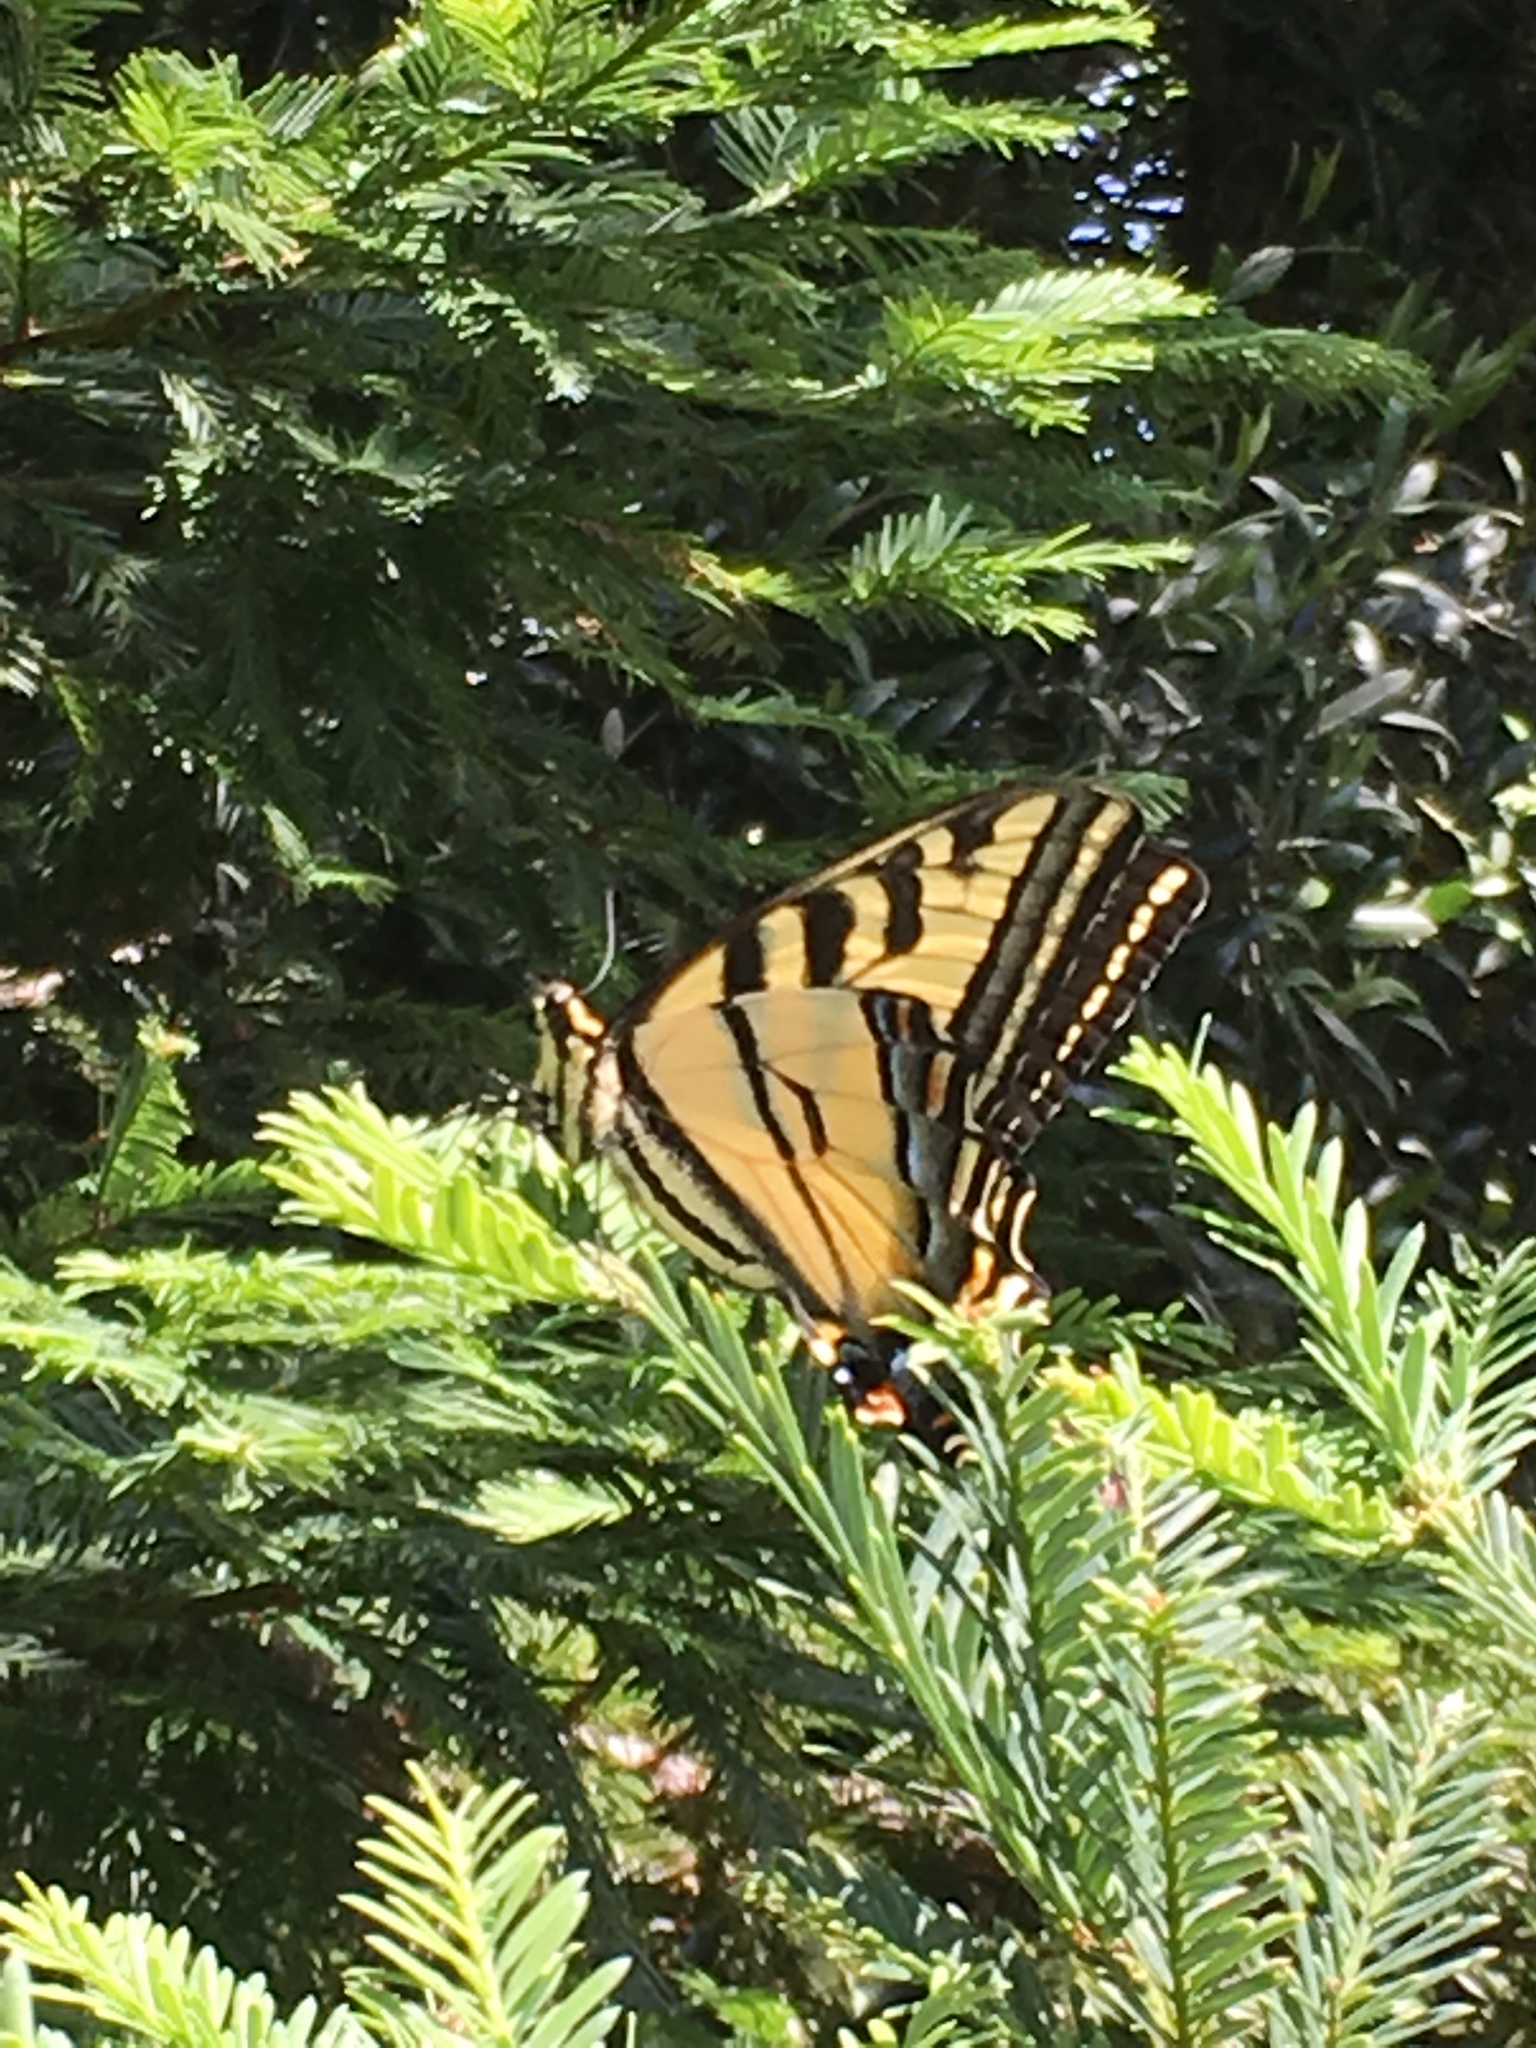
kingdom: Animalia
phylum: Arthropoda
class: Insecta
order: Lepidoptera
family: Papilionidae
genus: Papilio
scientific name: Papilio rutulus
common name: Western tiger swallowtail
